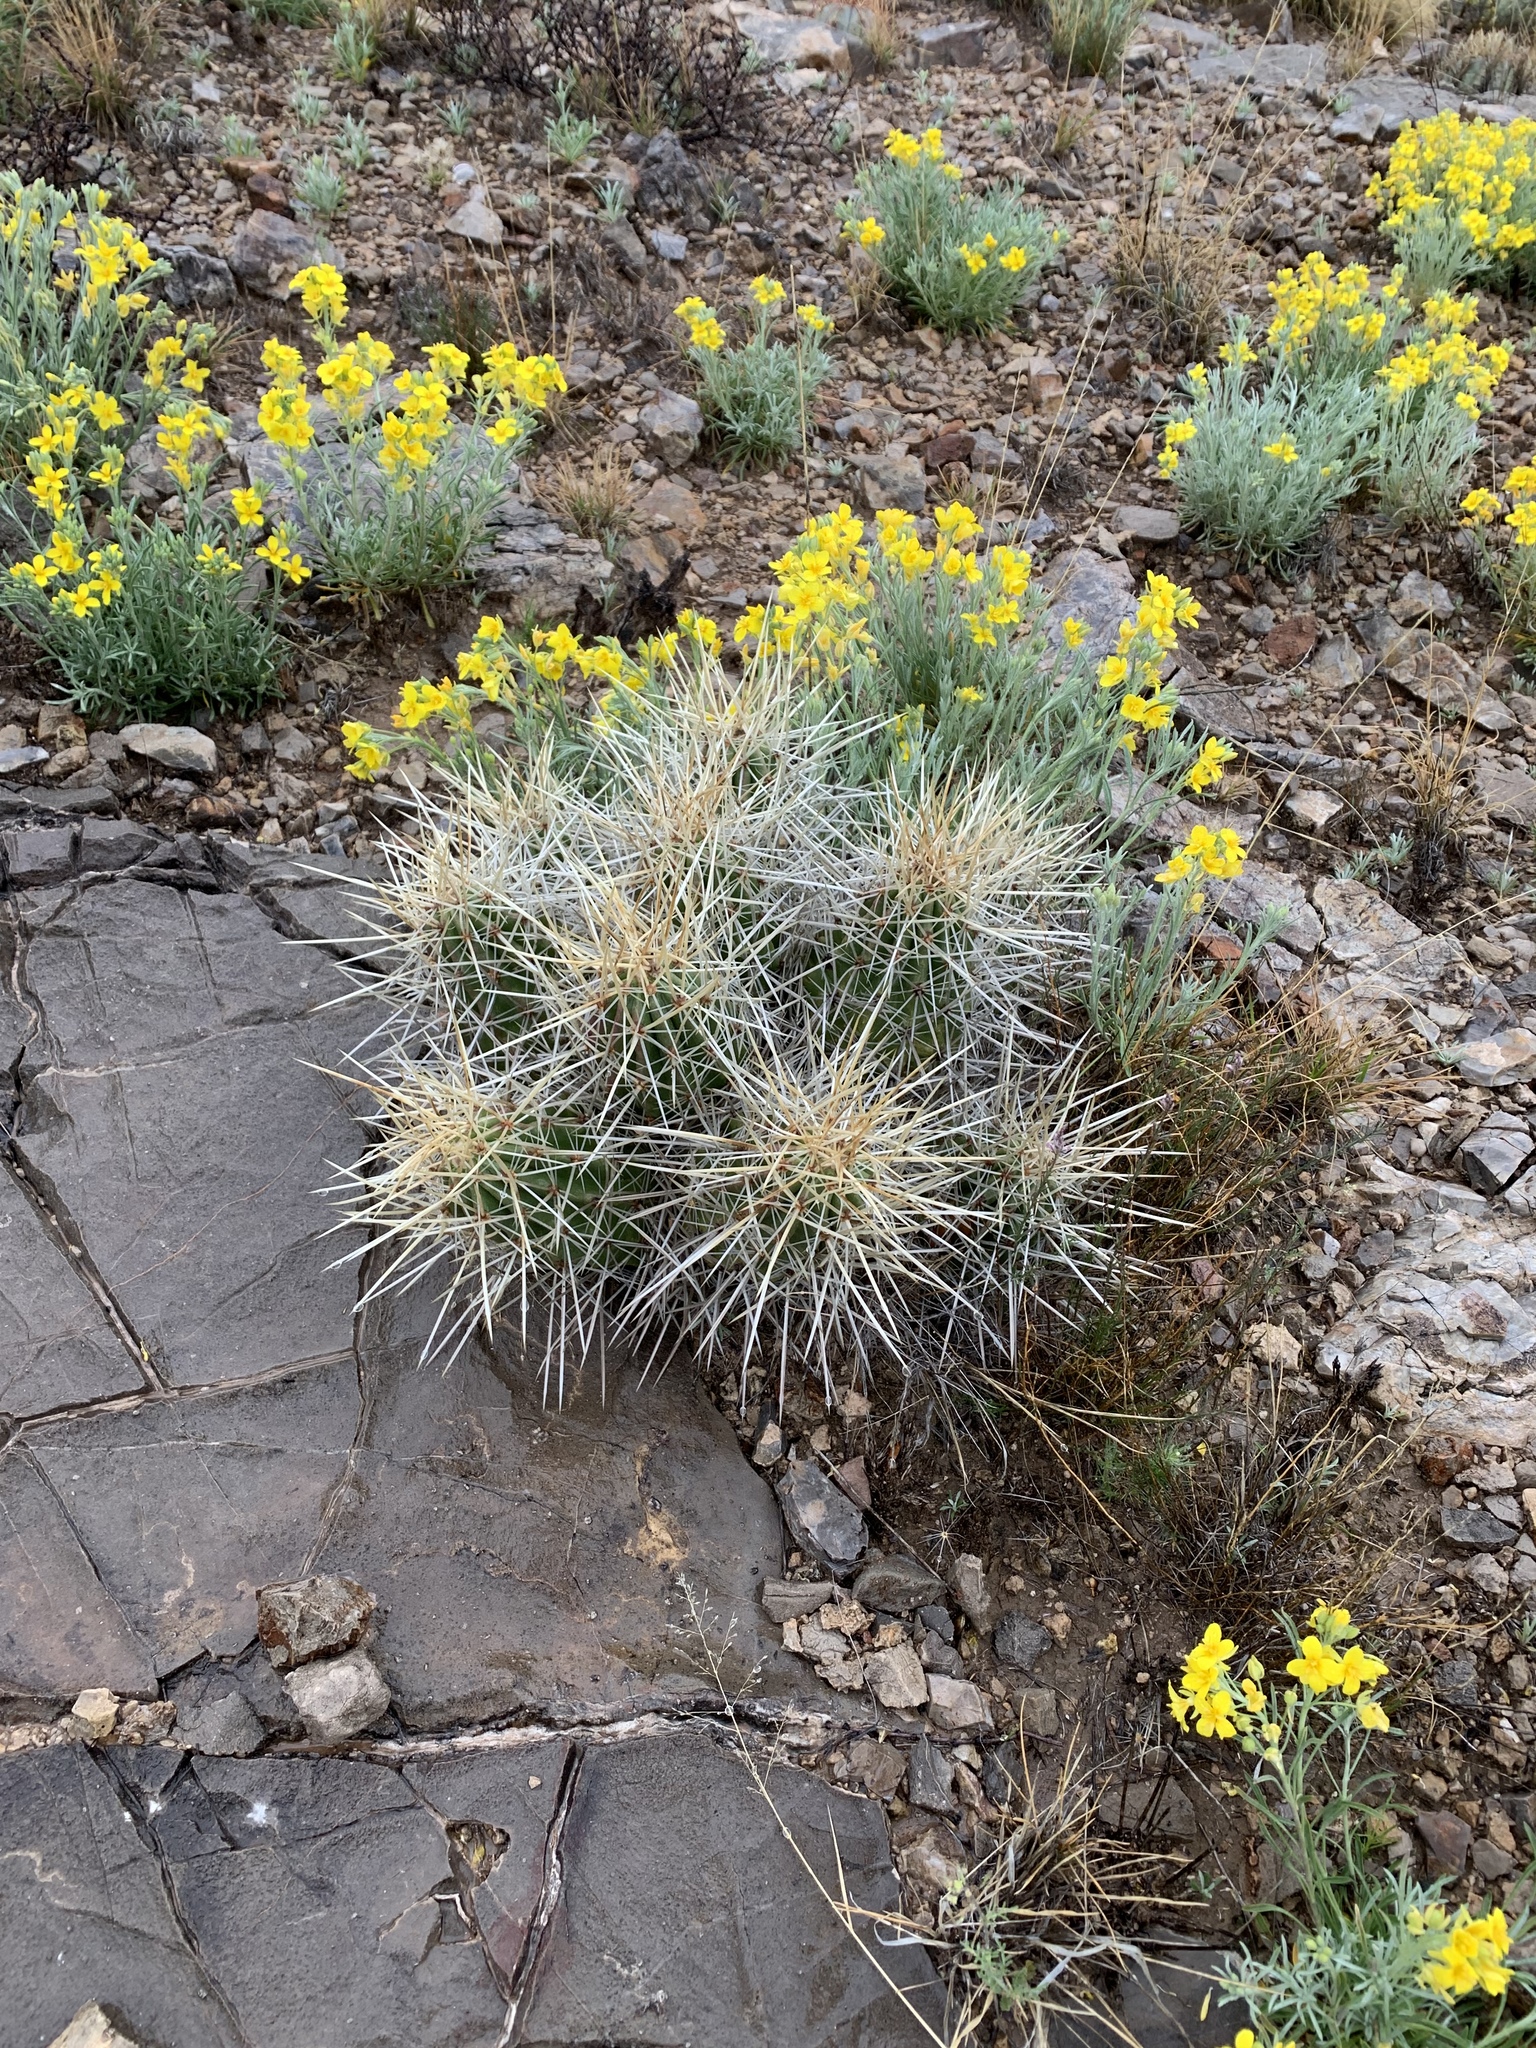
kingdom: Plantae
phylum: Tracheophyta
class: Magnoliopsida
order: Caryophyllales
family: Cactaceae
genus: Echinocereus
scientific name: Echinocereus stramineus
